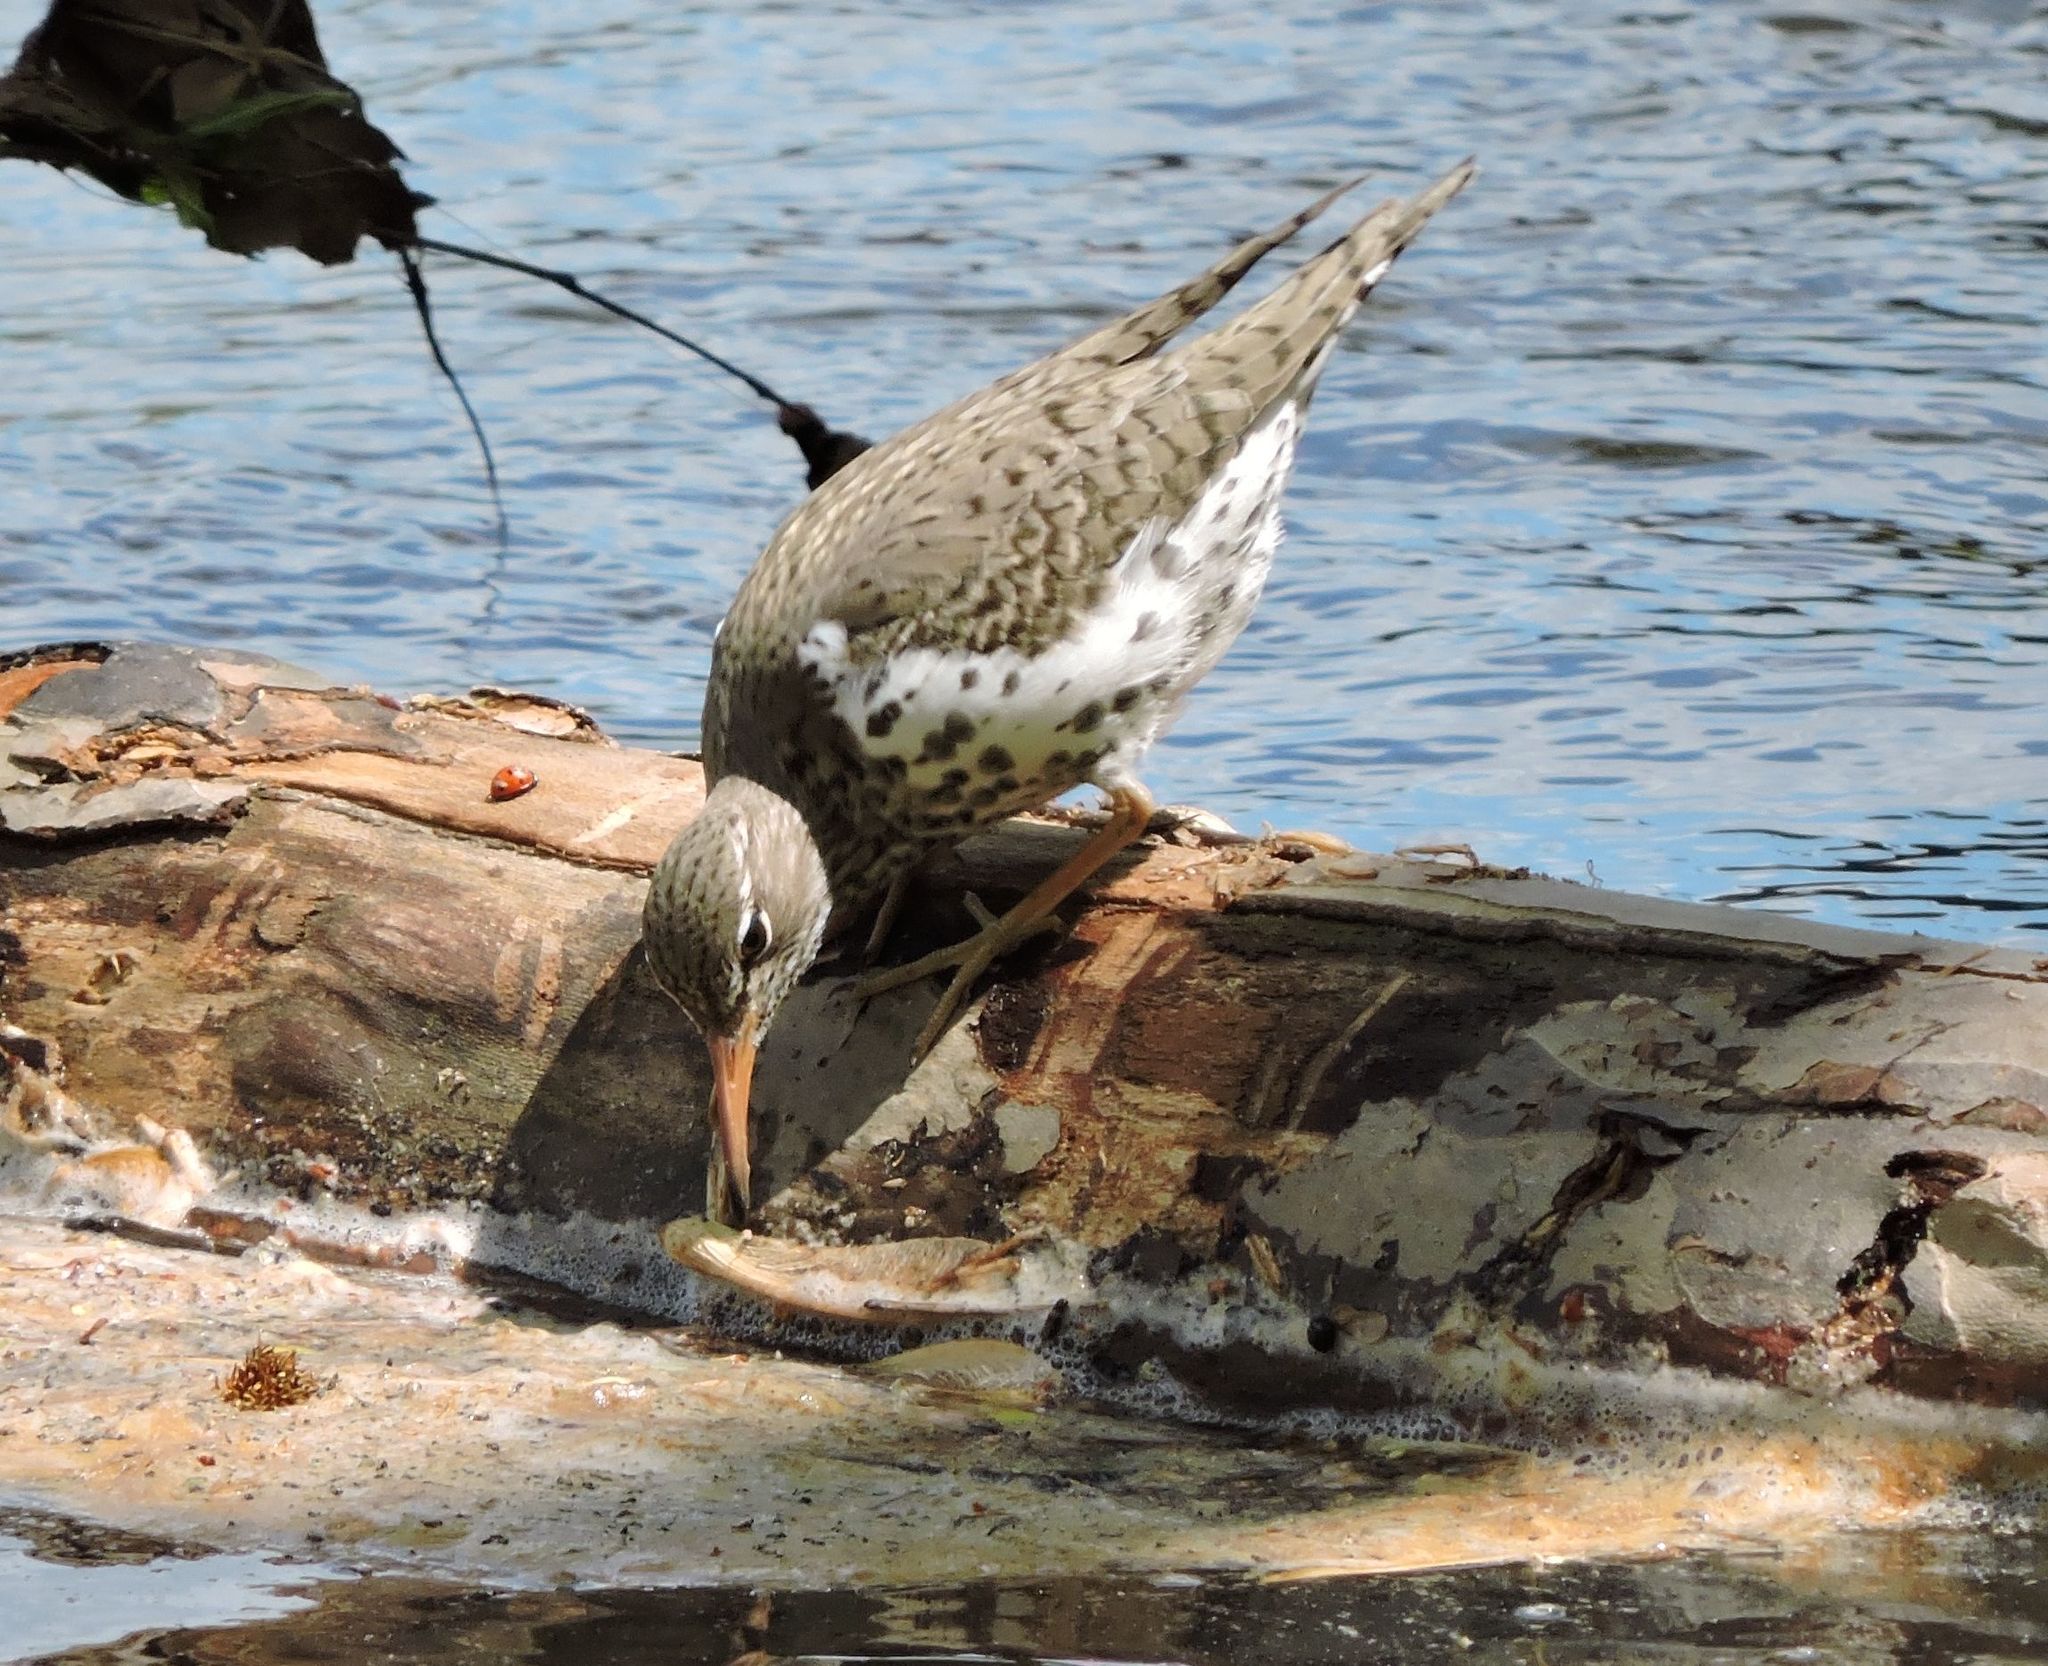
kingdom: Animalia
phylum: Chordata
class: Aves
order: Charadriiformes
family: Scolopacidae
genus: Actitis
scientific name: Actitis macularius
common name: Spotted sandpiper
